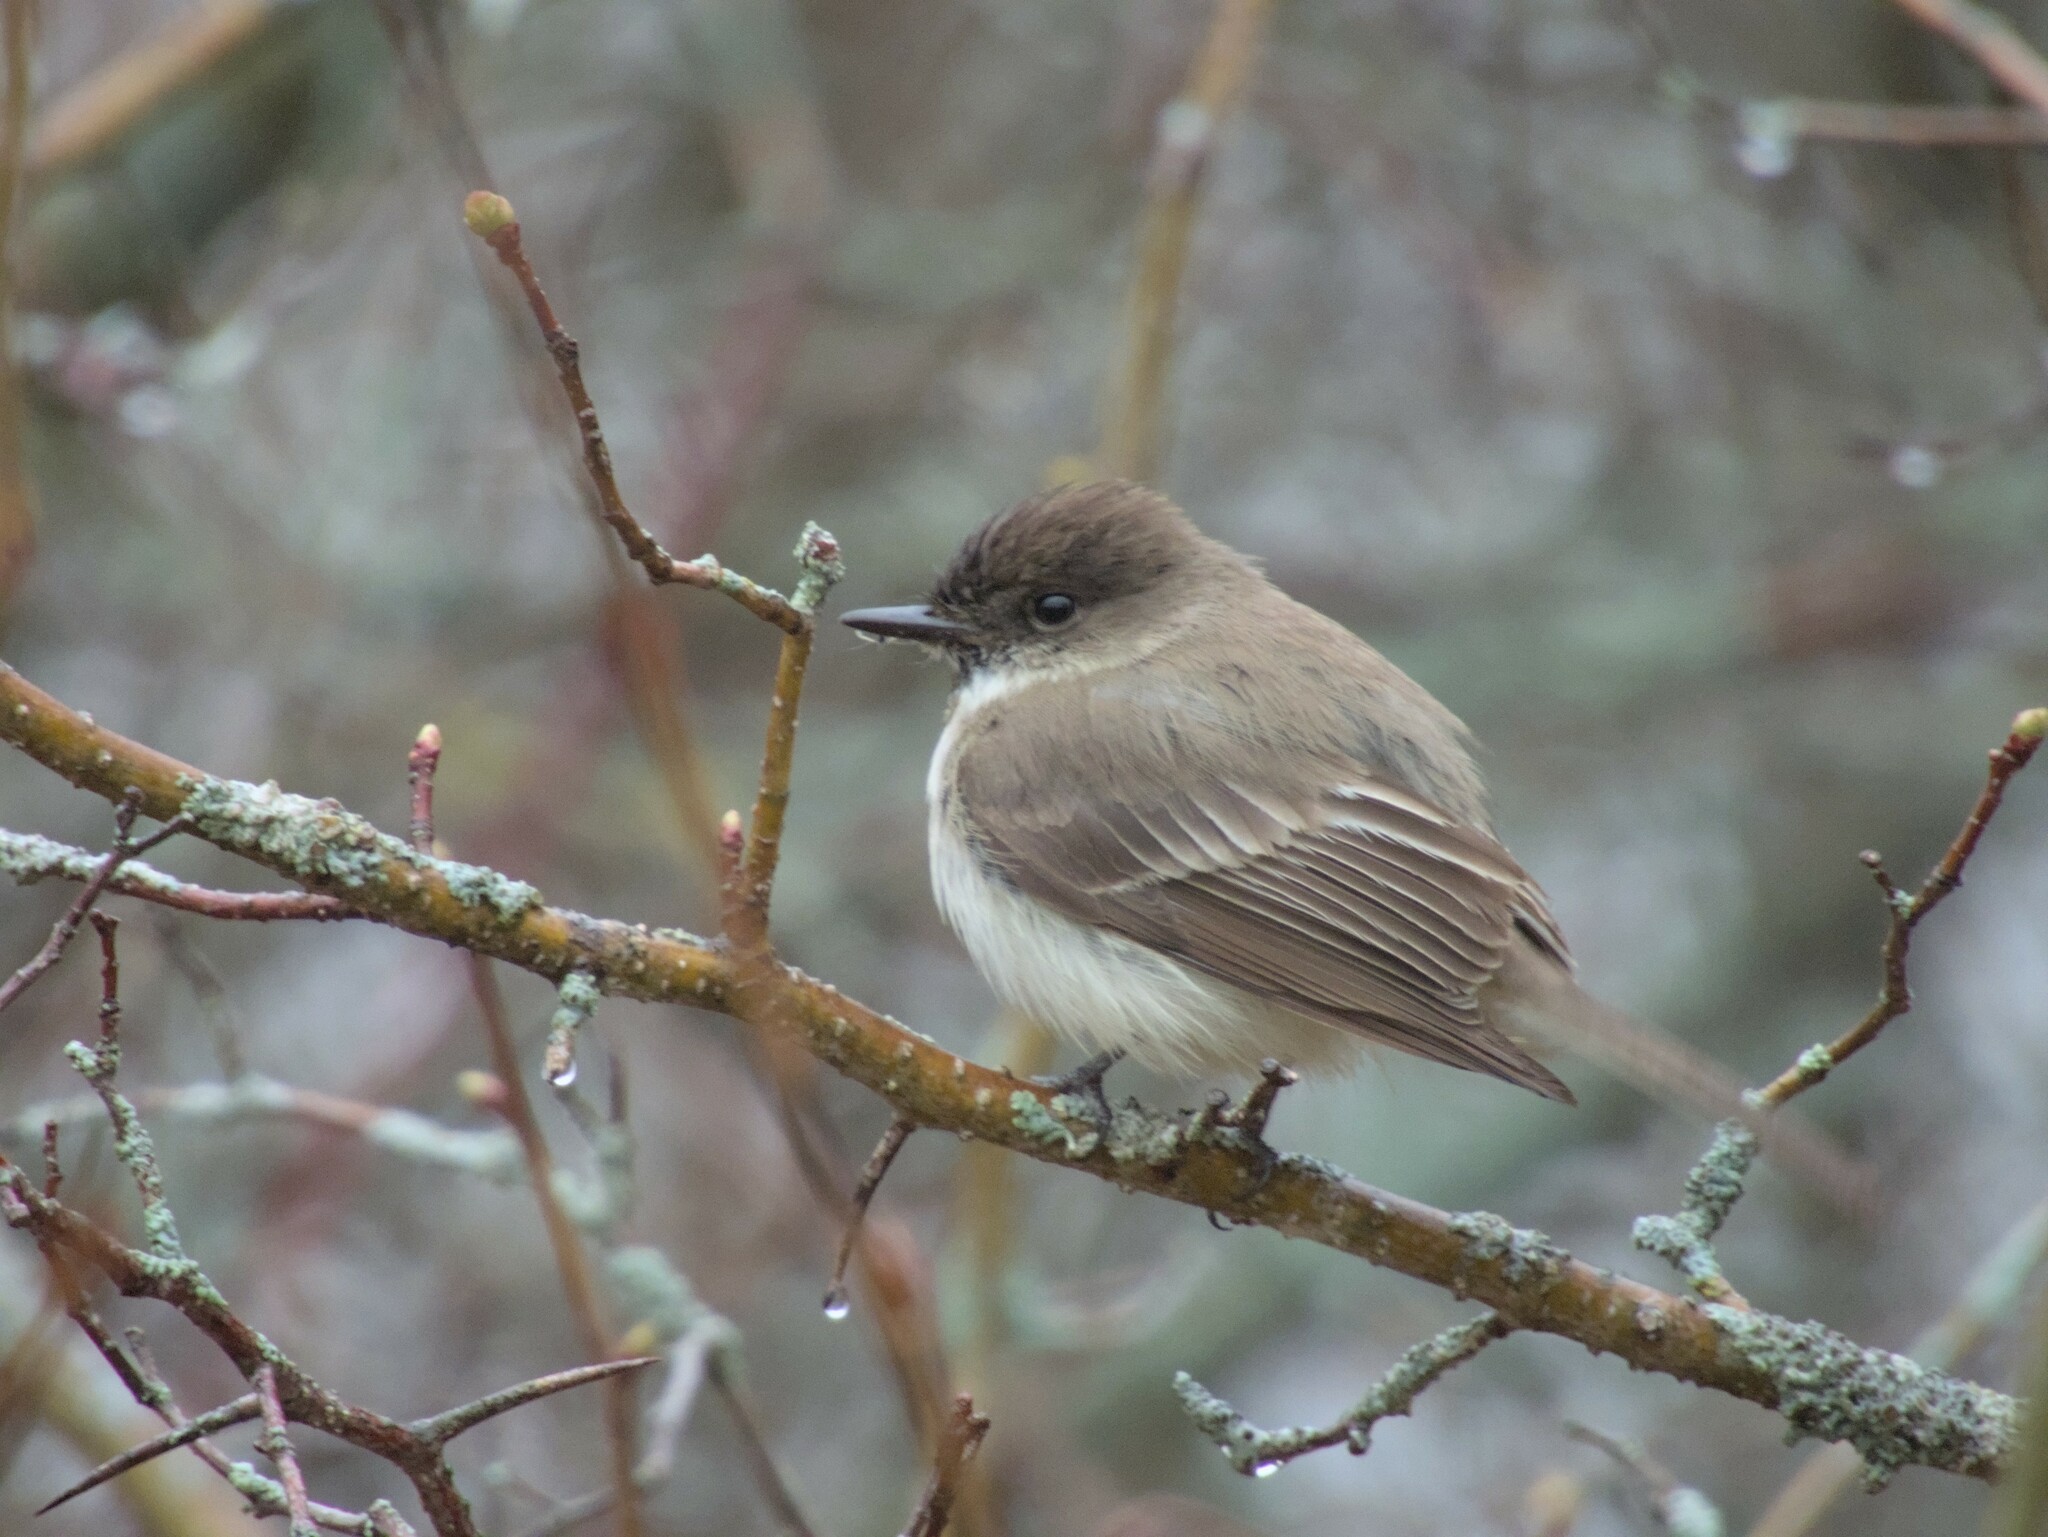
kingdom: Animalia
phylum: Chordata
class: Aves
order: Passeriformes
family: Tyrannidae
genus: Sayornis
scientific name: Sayornis phoebe
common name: Eastern phoebe
